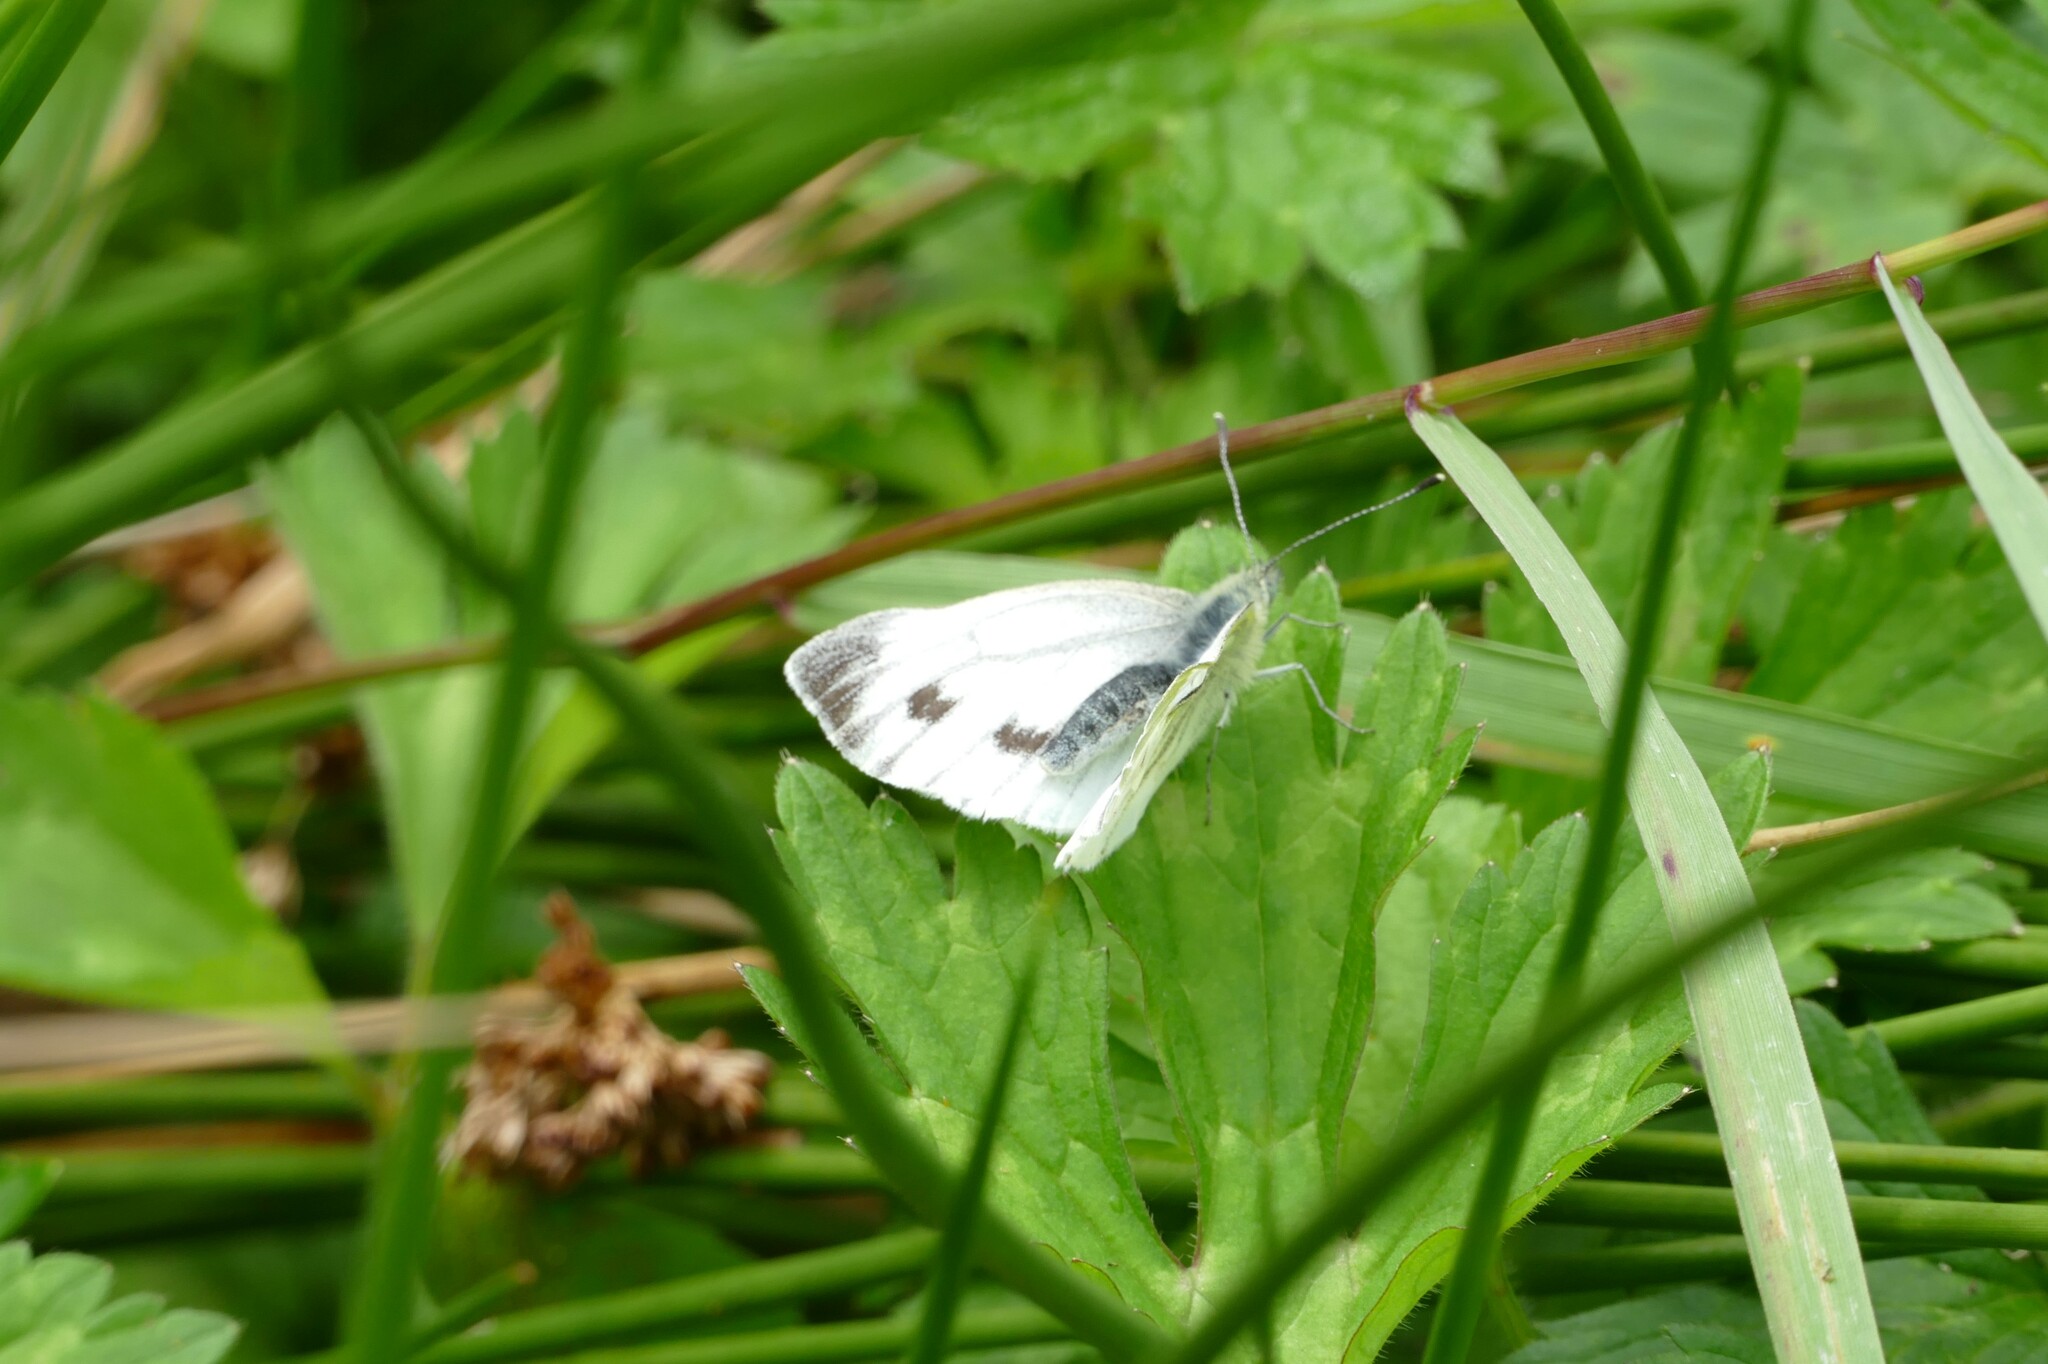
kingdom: Animalia
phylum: Arthropoda
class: Insecta
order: Lepidoptera
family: Pieridae
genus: Pieris
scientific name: Pieris napi
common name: Green-veined white
